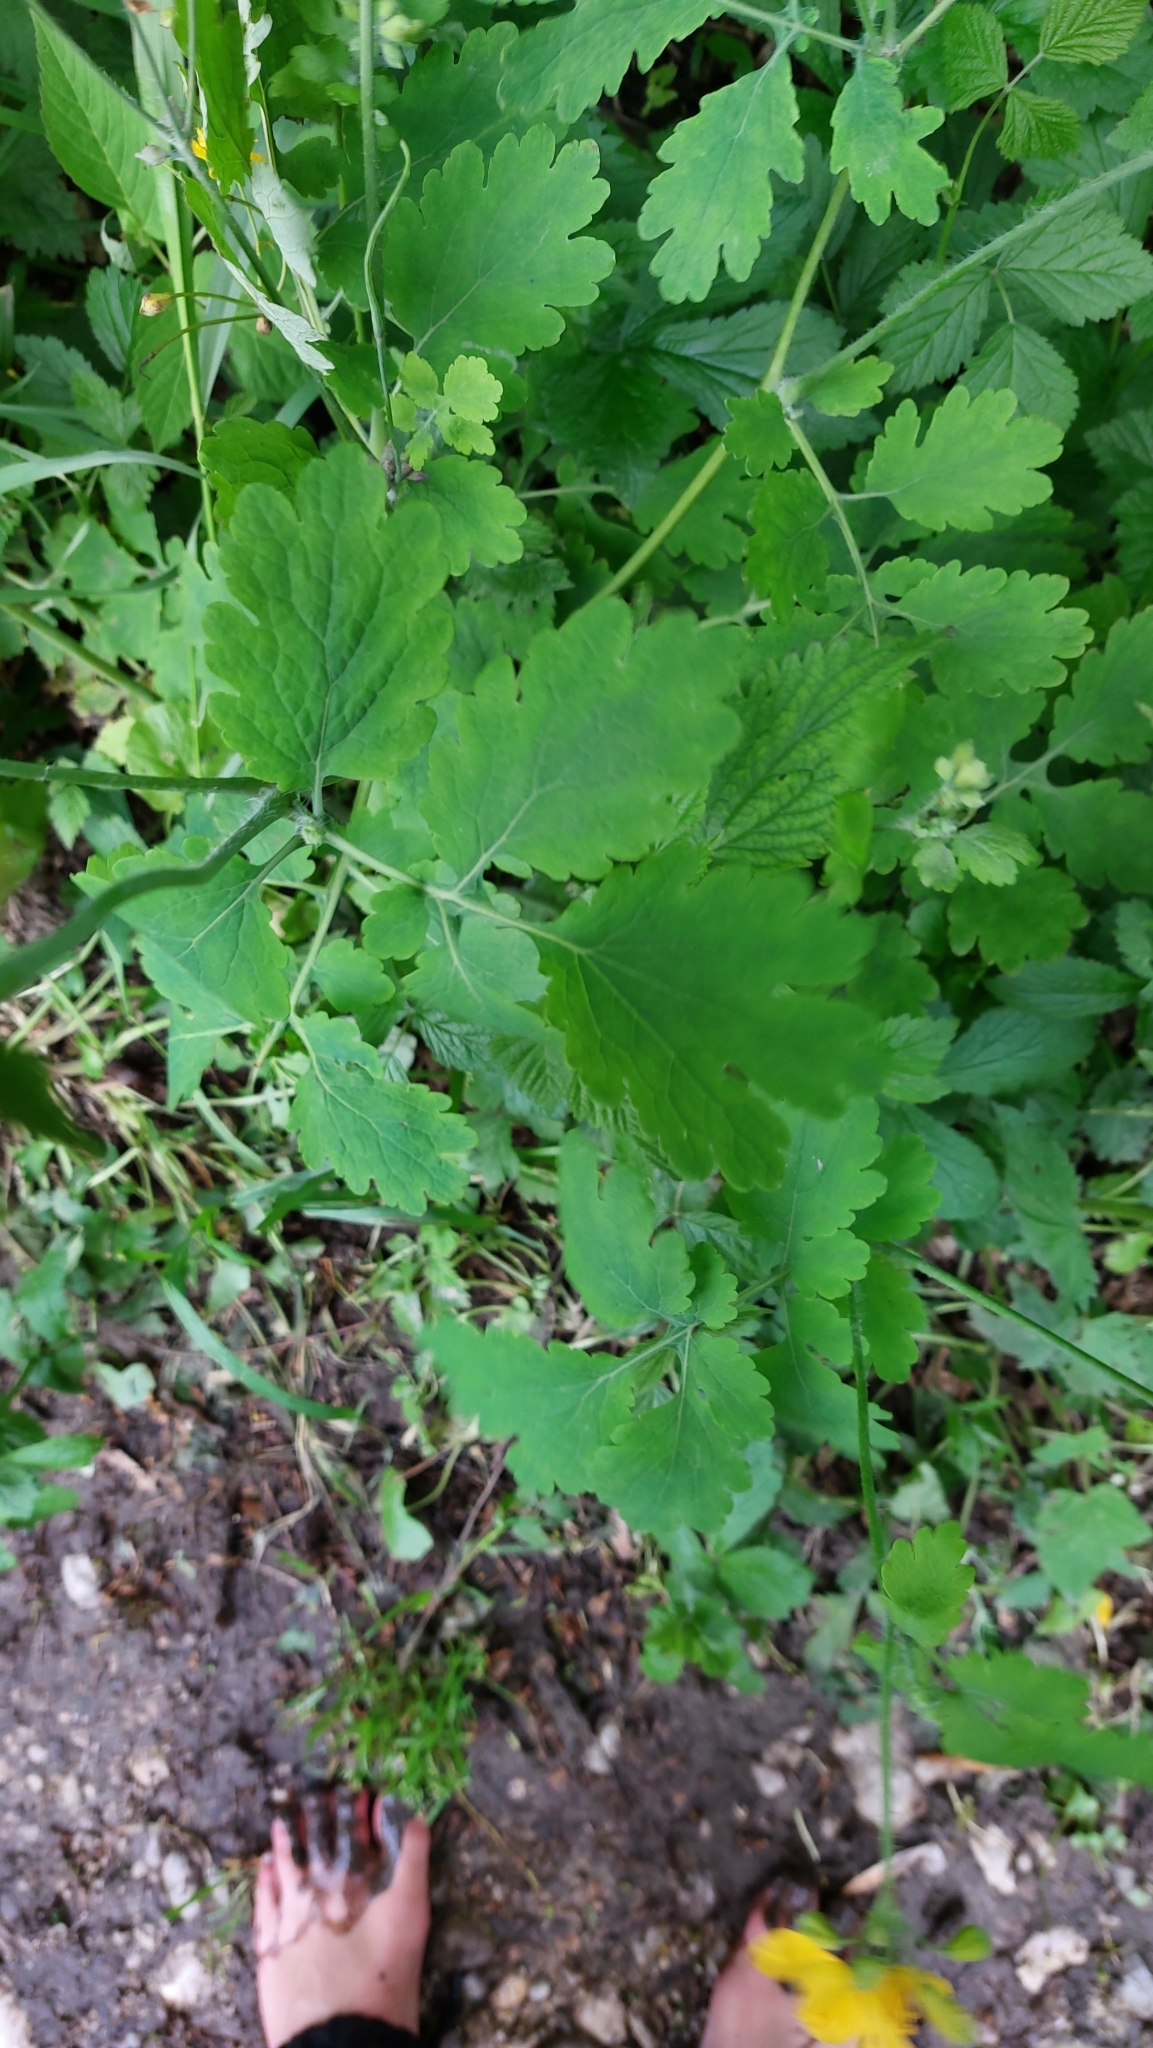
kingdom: Plantae
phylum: Tracheophyta
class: Magnoliopsida
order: Ranunculales
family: Papaveraceae
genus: Chelidonium
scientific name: Chelidonium majus
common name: Greater celandine
